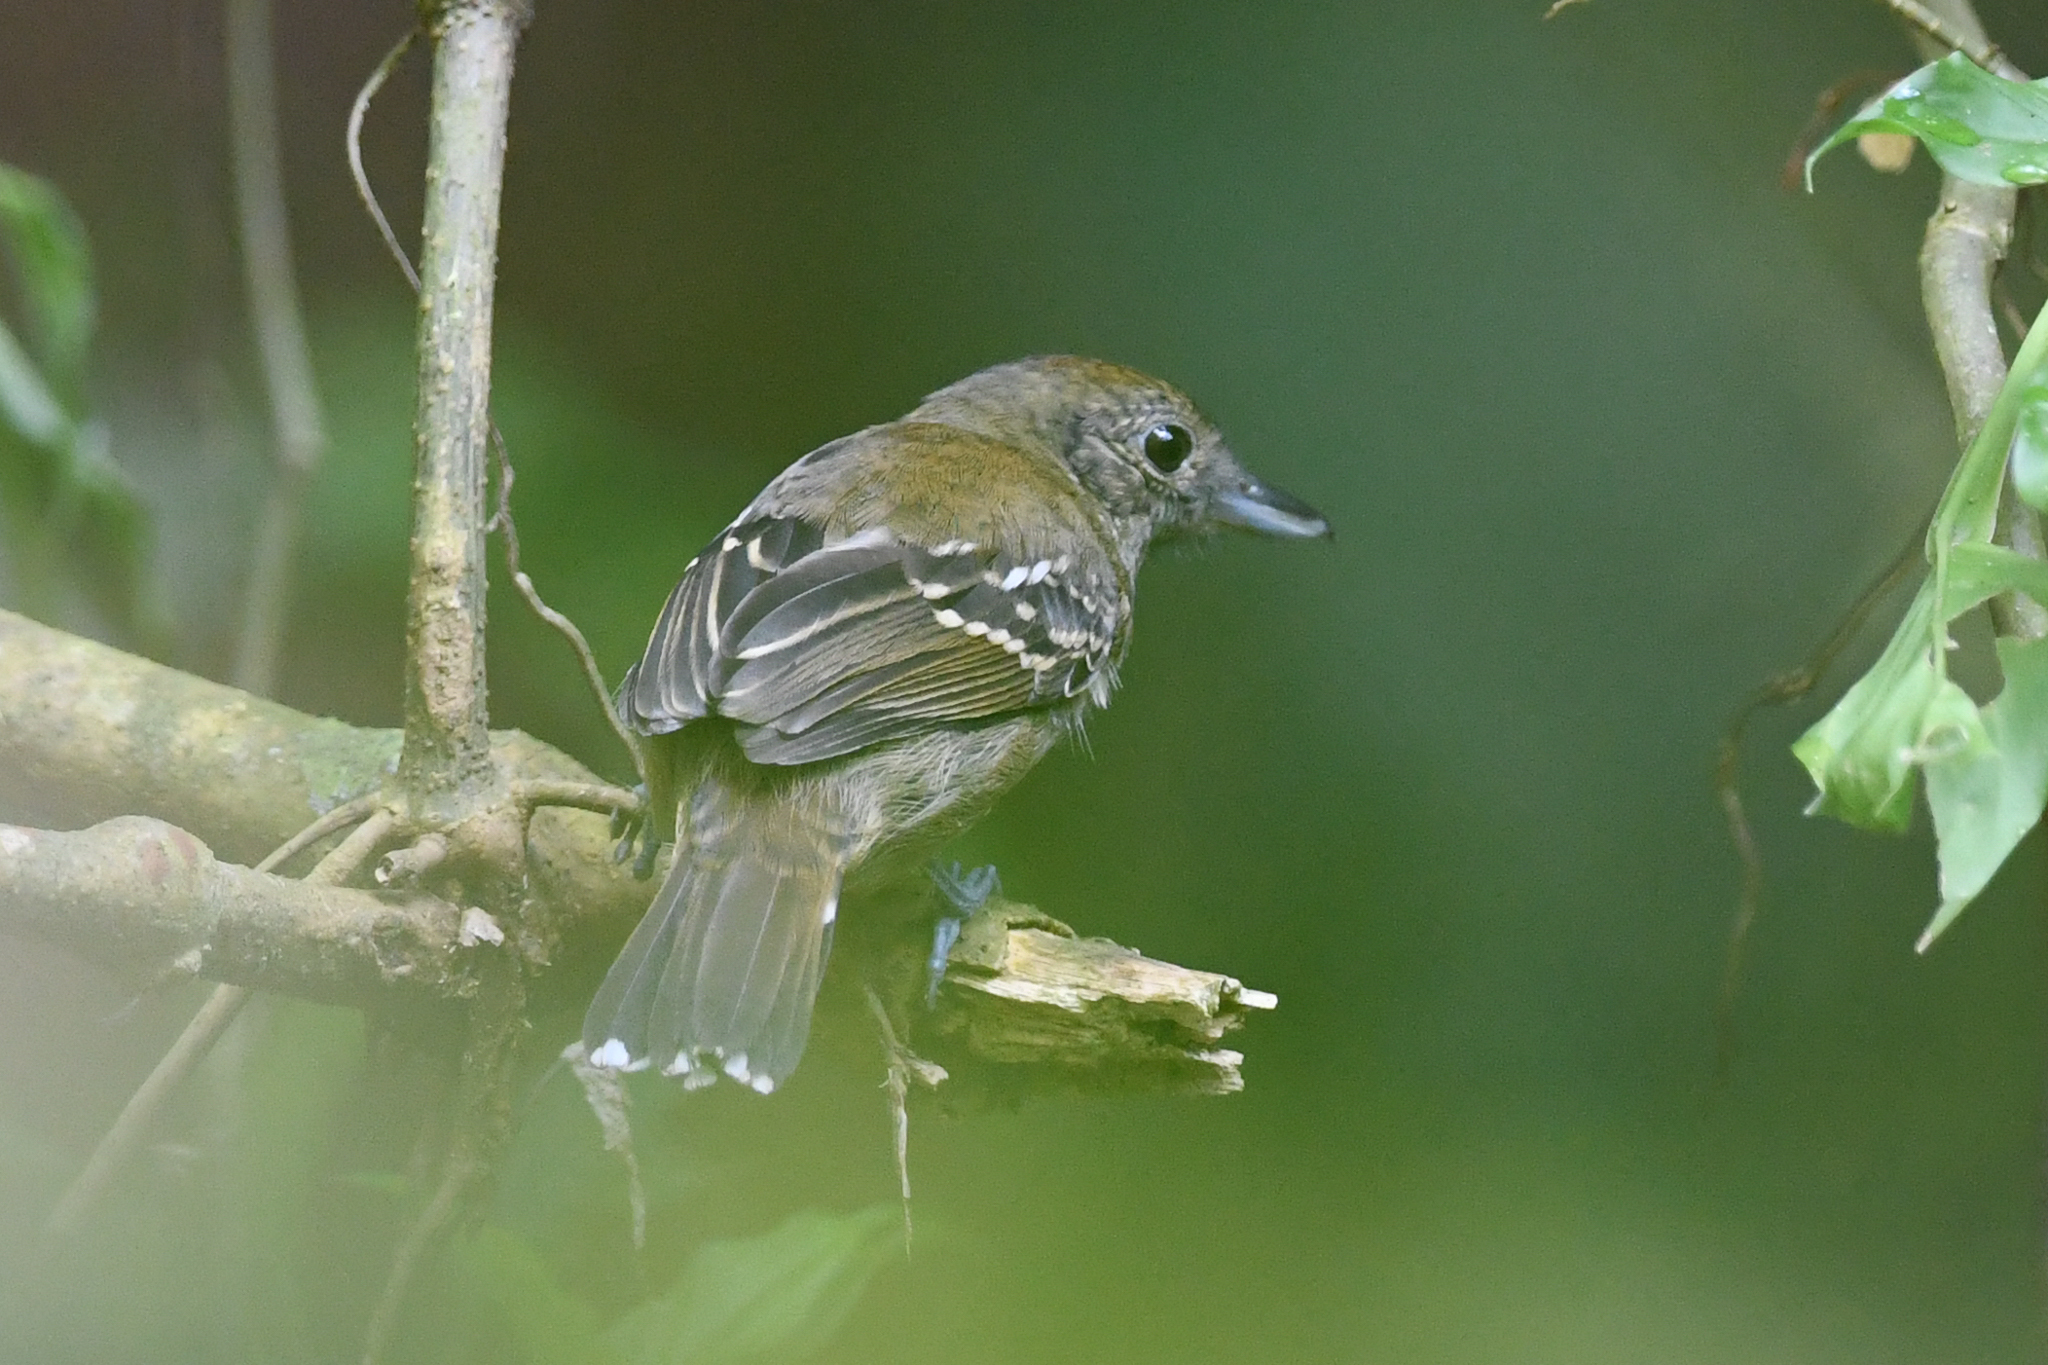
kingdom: Animalia
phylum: Chordata
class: Aves
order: Passeriformes
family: Thamnophilidae
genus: Thamnophilus
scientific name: Thamnophilus atrinucha
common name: Black-crowned antshrike
